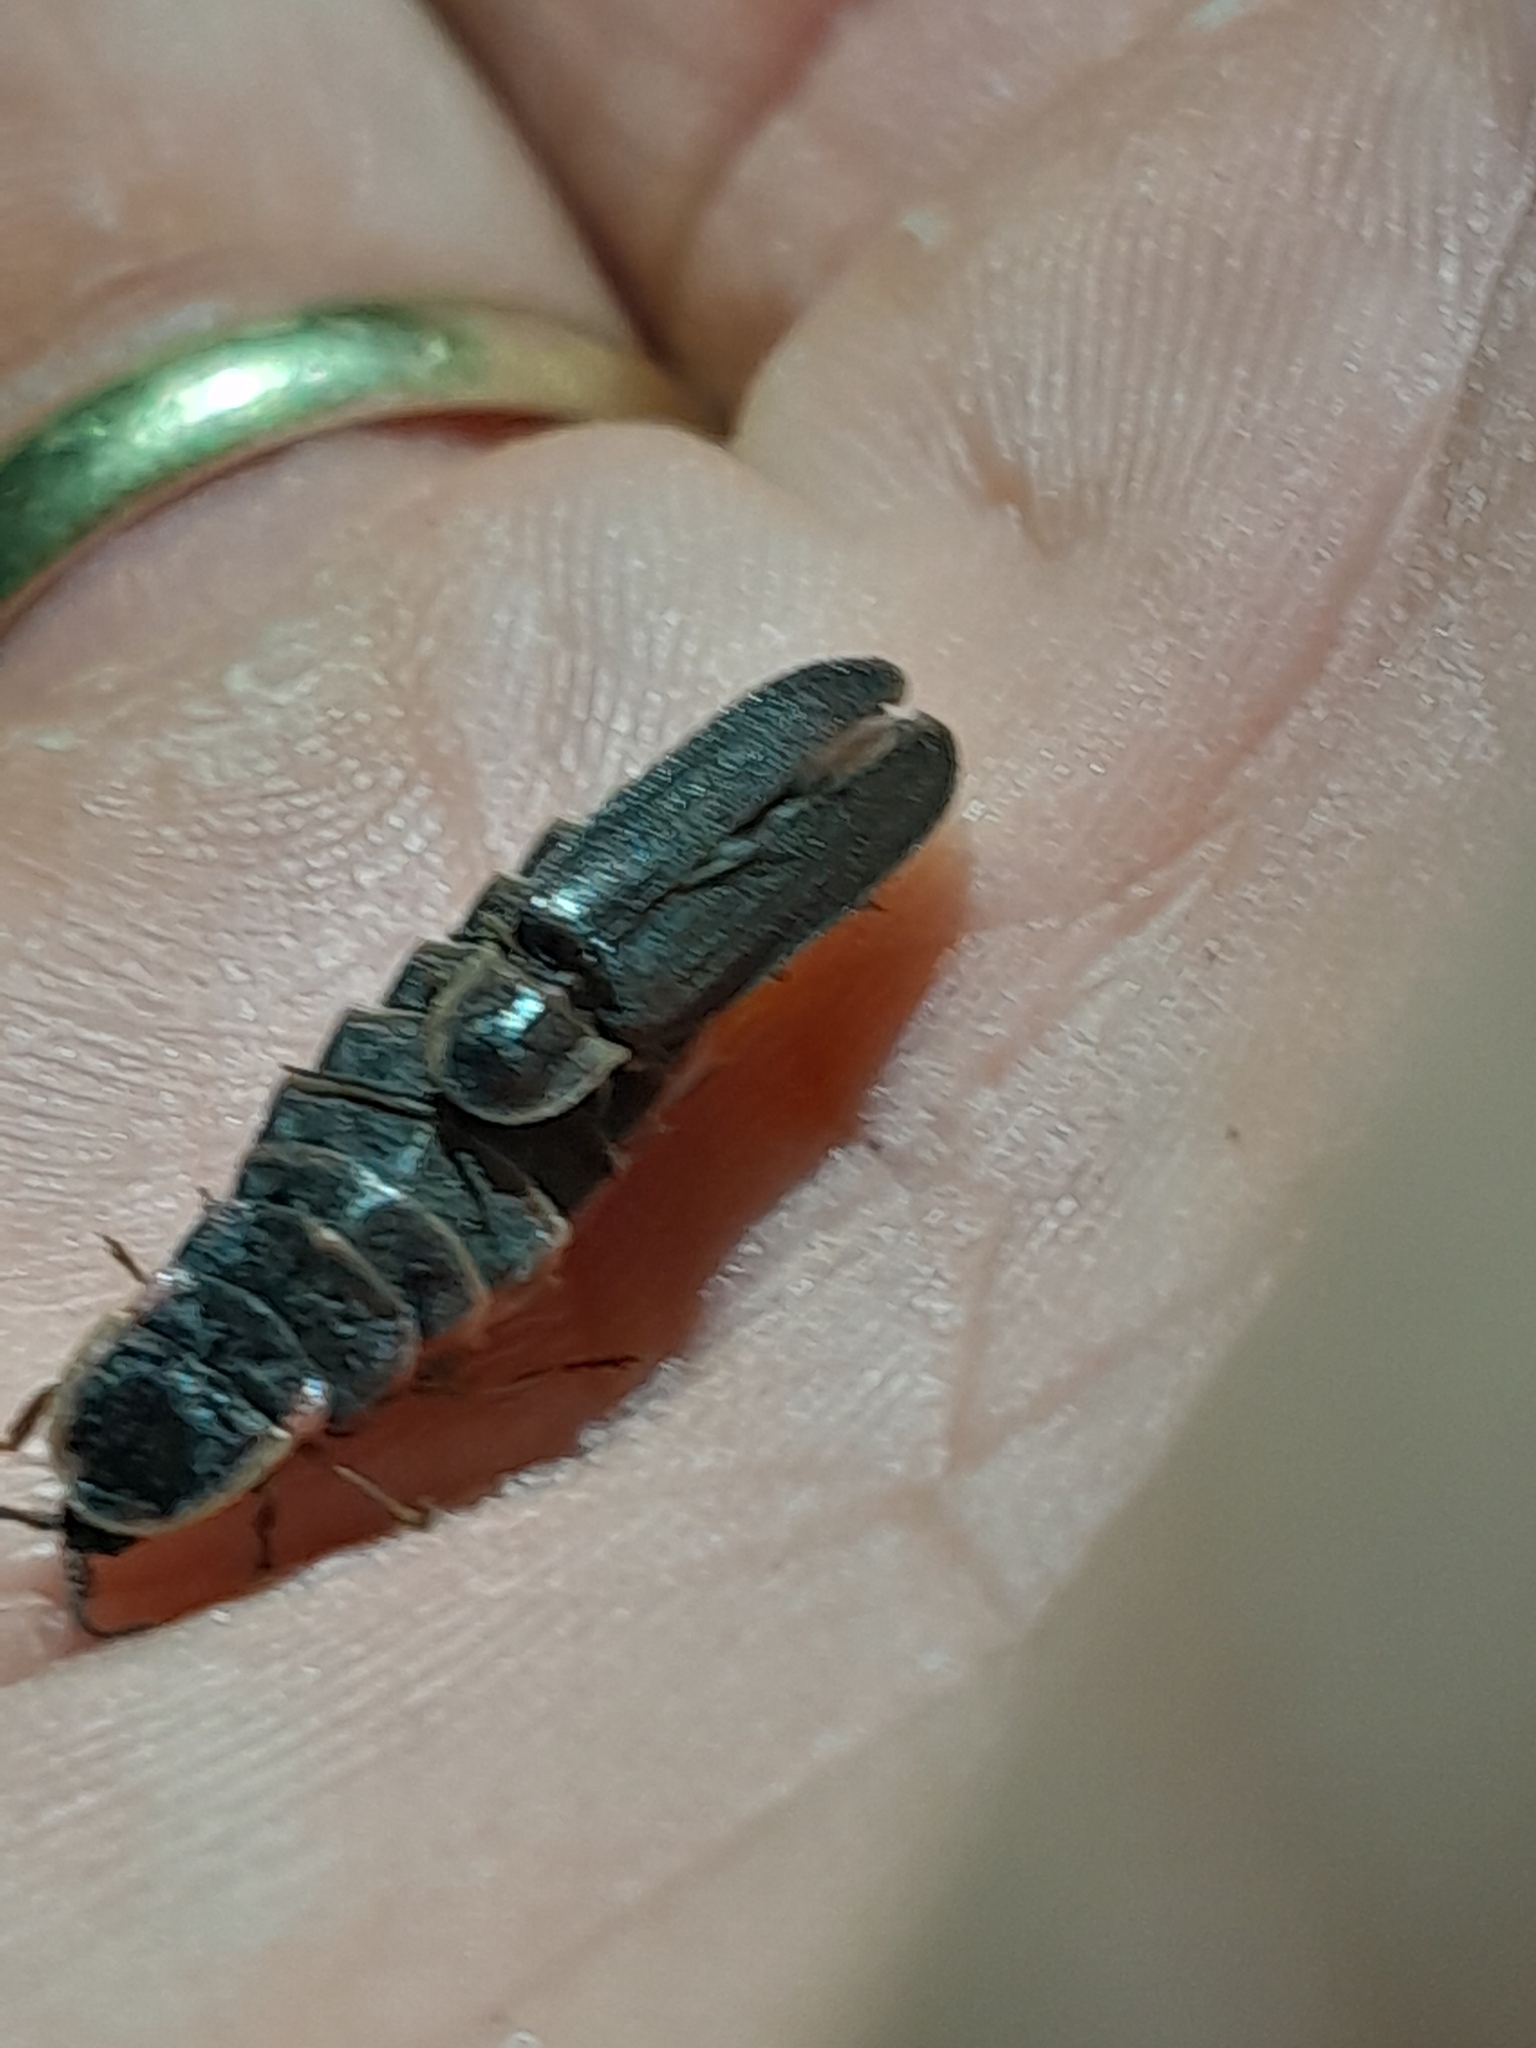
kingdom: Animalia
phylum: Arthropoda
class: Insecta
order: Coleoptera
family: Lampyridae
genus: Lampyris
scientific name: Lampyris noctiluca
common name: Glow-worm
